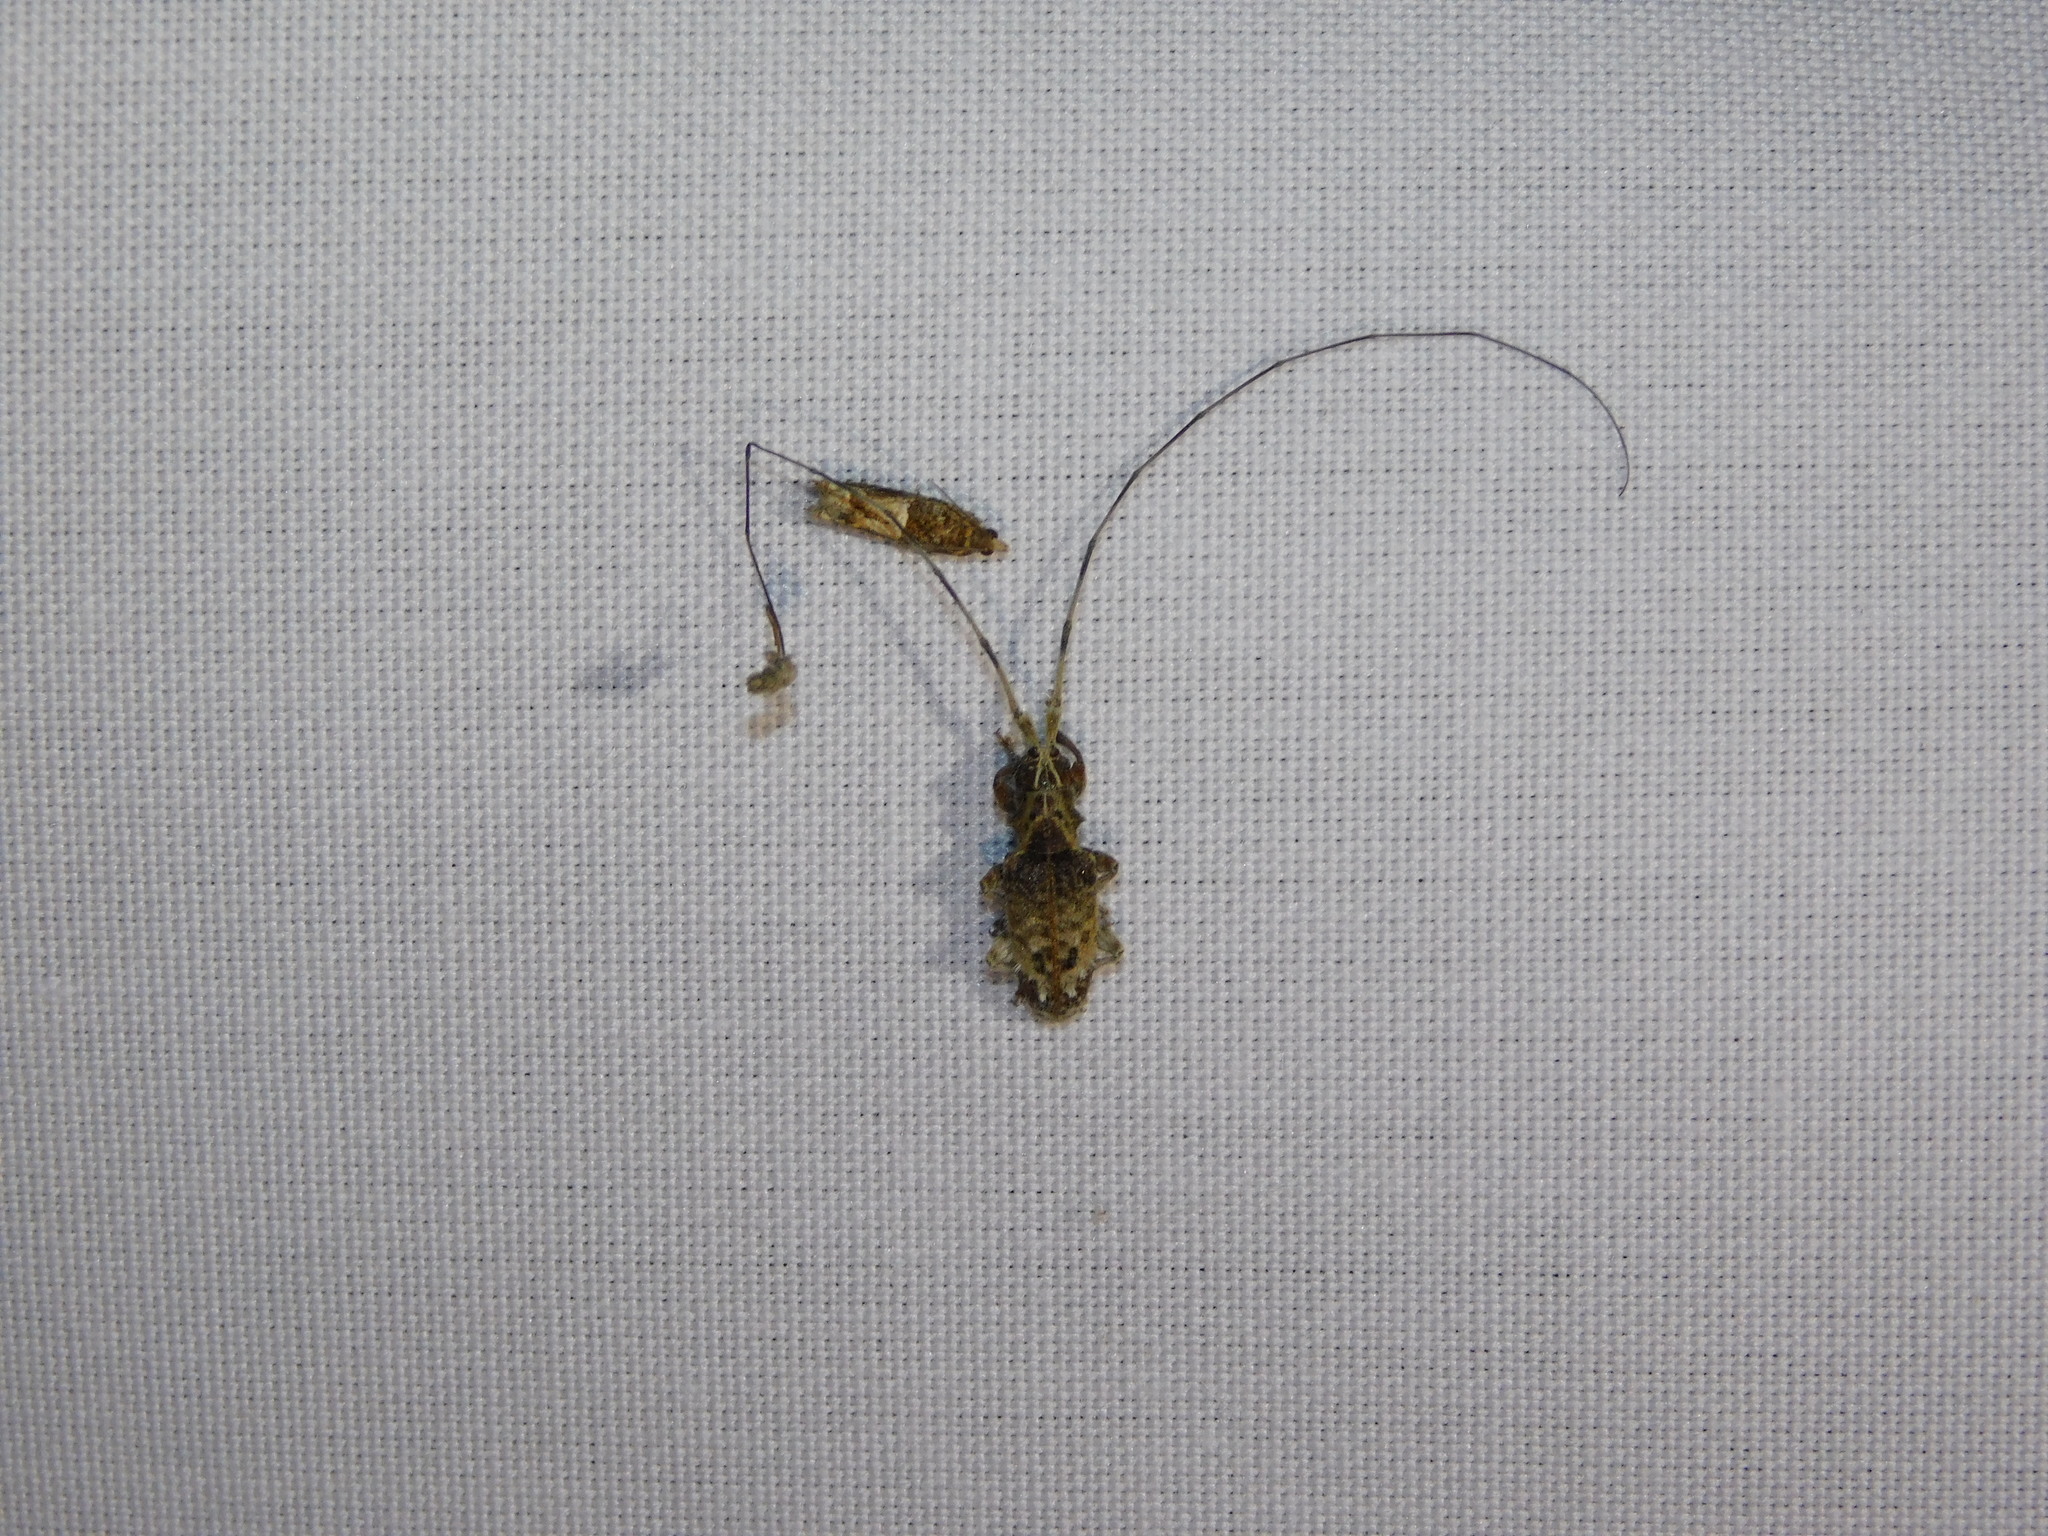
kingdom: Animalia
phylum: Arthropoda
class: Insecta
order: Coleoptera
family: Cerambycidae
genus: Hirtaeschopalaea
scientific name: Hirtaeschopalaea albolineata
